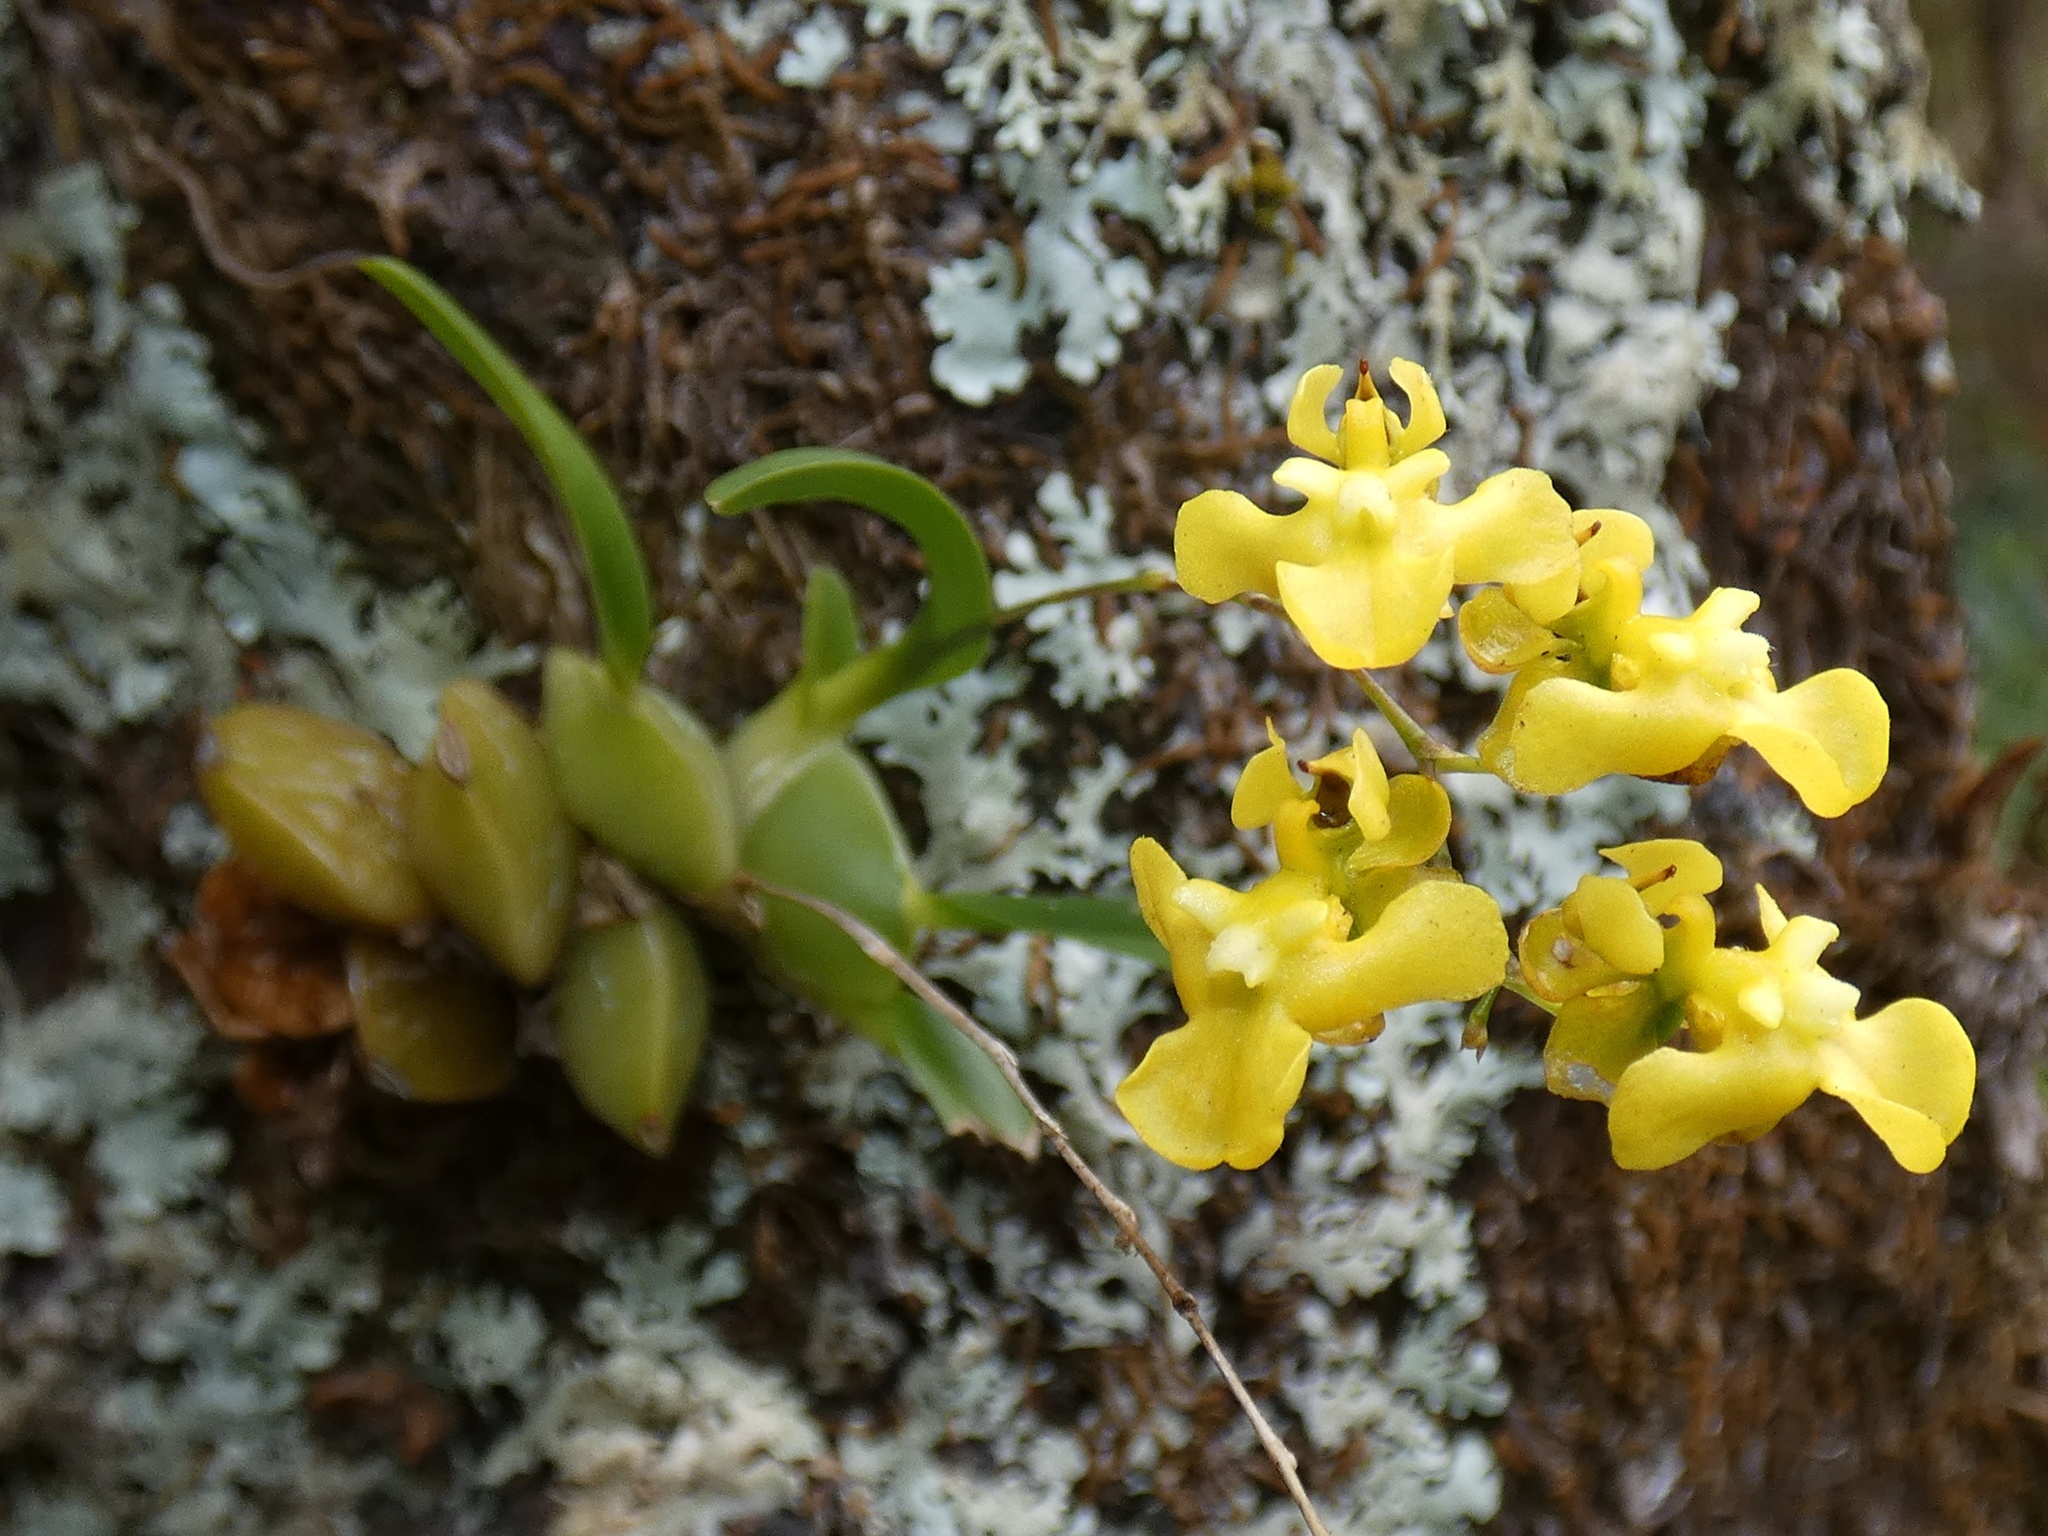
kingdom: Plantae
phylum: Tracheophyta
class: Liliopsida
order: Asparagales
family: Orchidaceae
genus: Oncidium
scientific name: Oncidium cheirophorum
